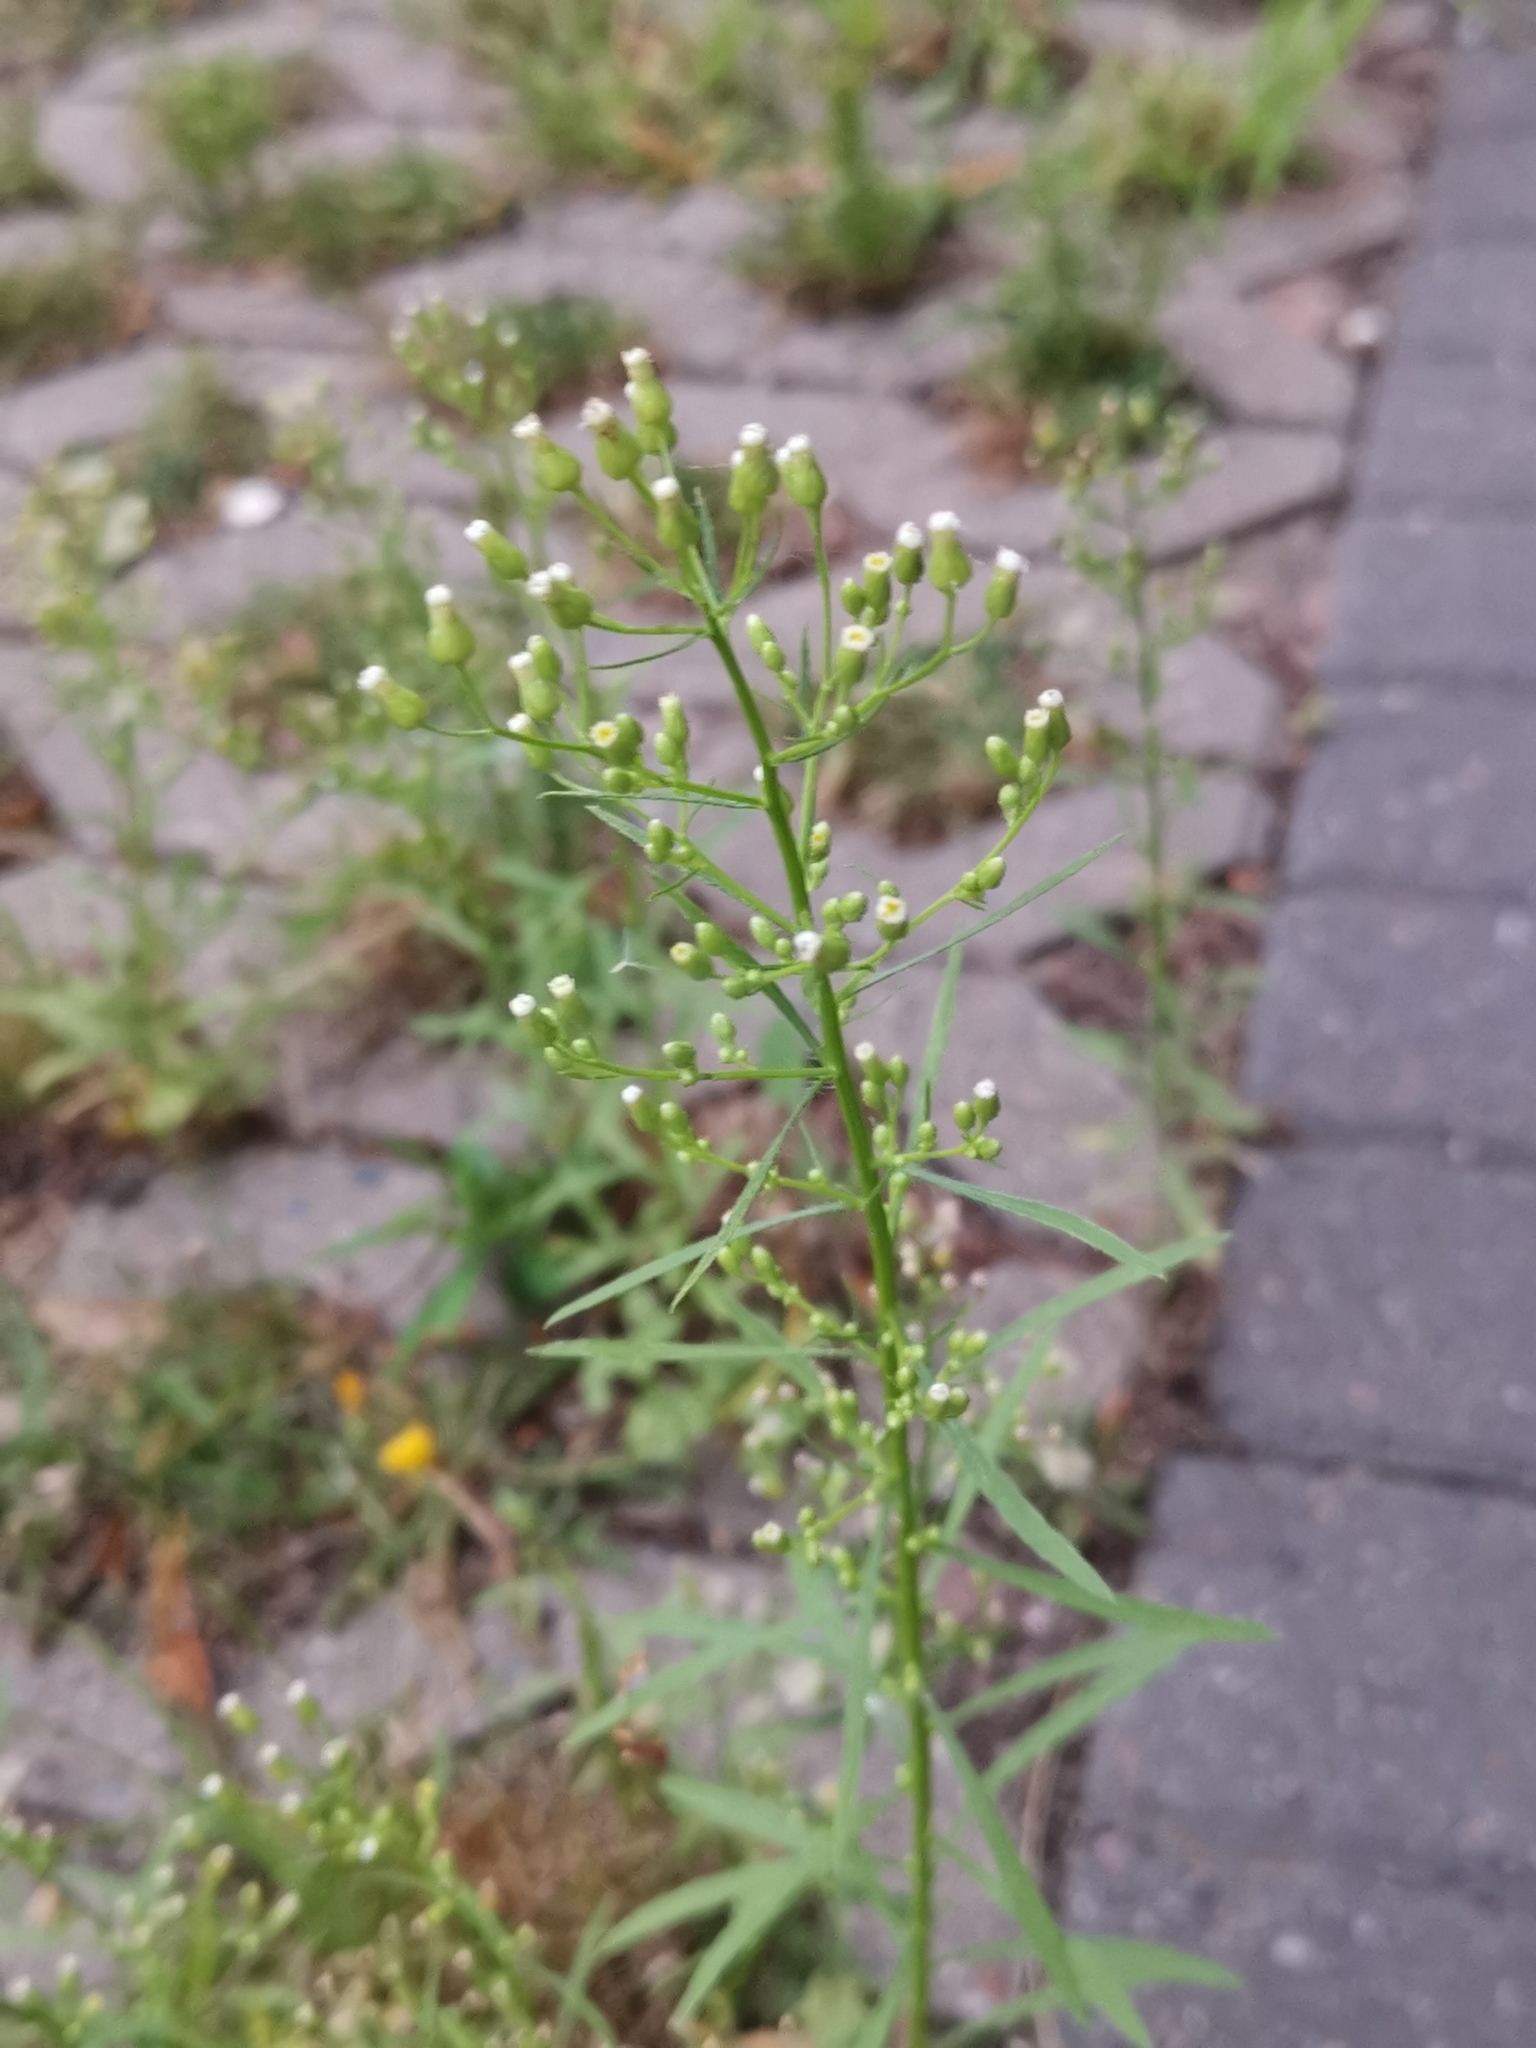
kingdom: Plantae
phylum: Tracheophyta
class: Magnoliopsida
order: Asterales
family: Asteraceae
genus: Erigeron
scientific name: Erigeron canadensis
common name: Canadian fleabane
